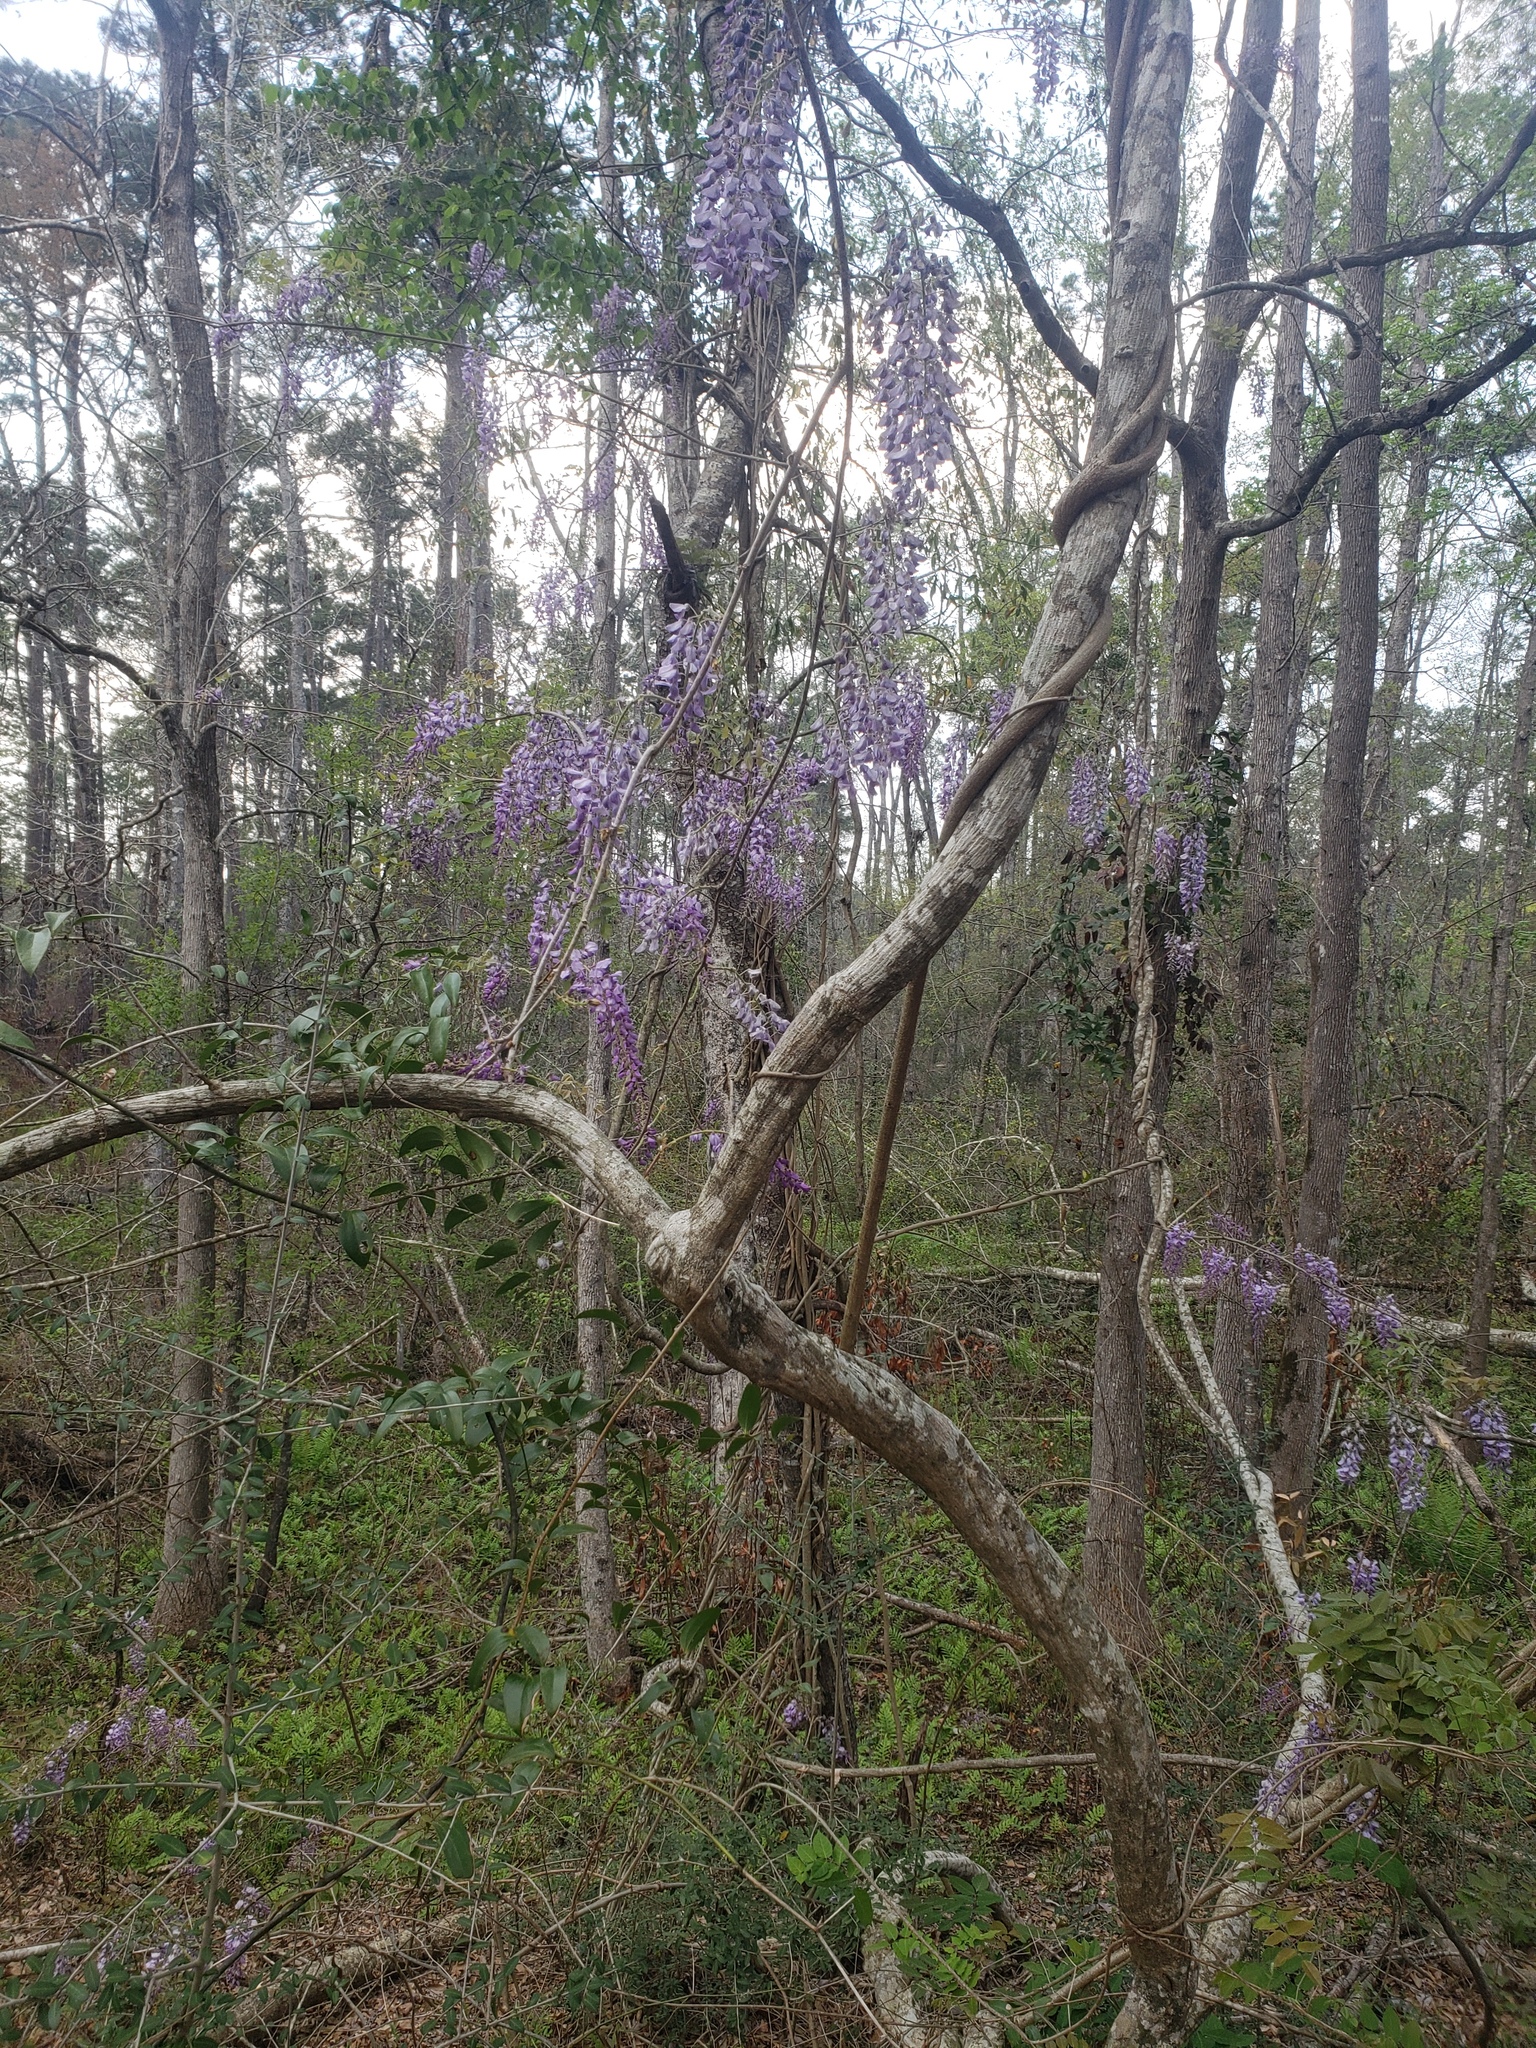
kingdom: Plantae
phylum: Tracheophyta
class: Magnoliopsida
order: Fabales
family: Fabaceae
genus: Wisteria
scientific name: Wisteria sinensis
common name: Chinese wisteria
